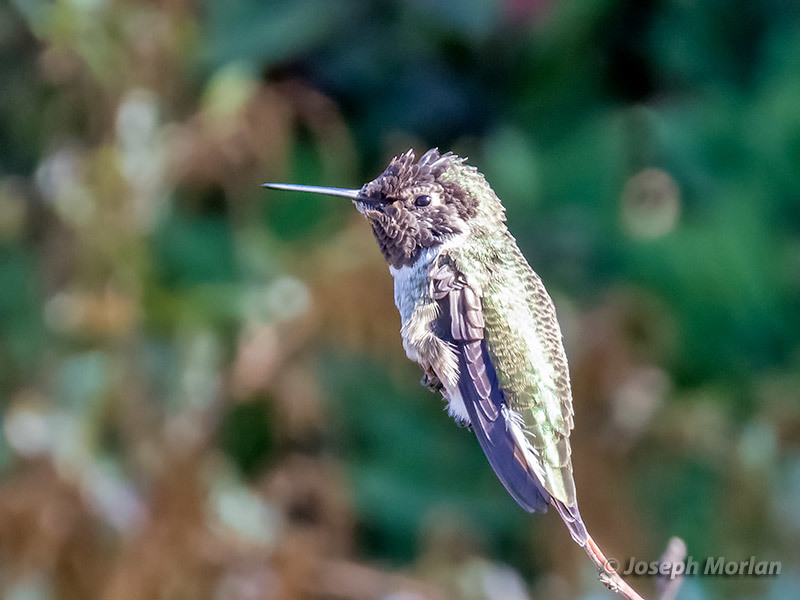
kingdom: Animalia
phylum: Chordata
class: Aves
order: Apodiformes
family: Trochilidae
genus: Calypte
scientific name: Calypte anna
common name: Anna's hummingbird
